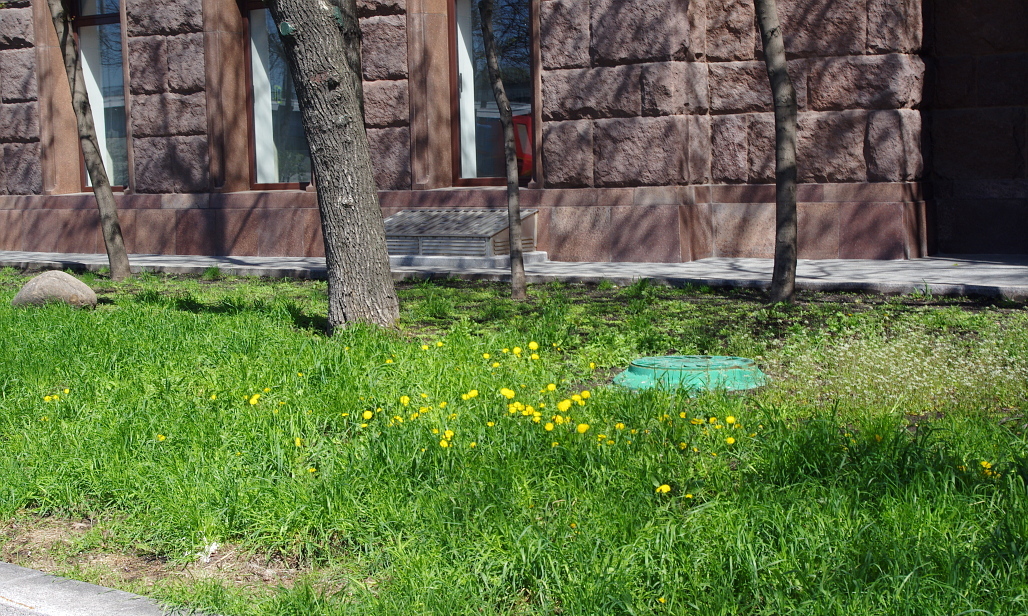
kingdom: Plantae
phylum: Tracheophyta
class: Magnoliopsida
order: Asterales
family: Asteraceae
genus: Taraxacum
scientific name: Taraxacum officinale
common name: Common dandelion
